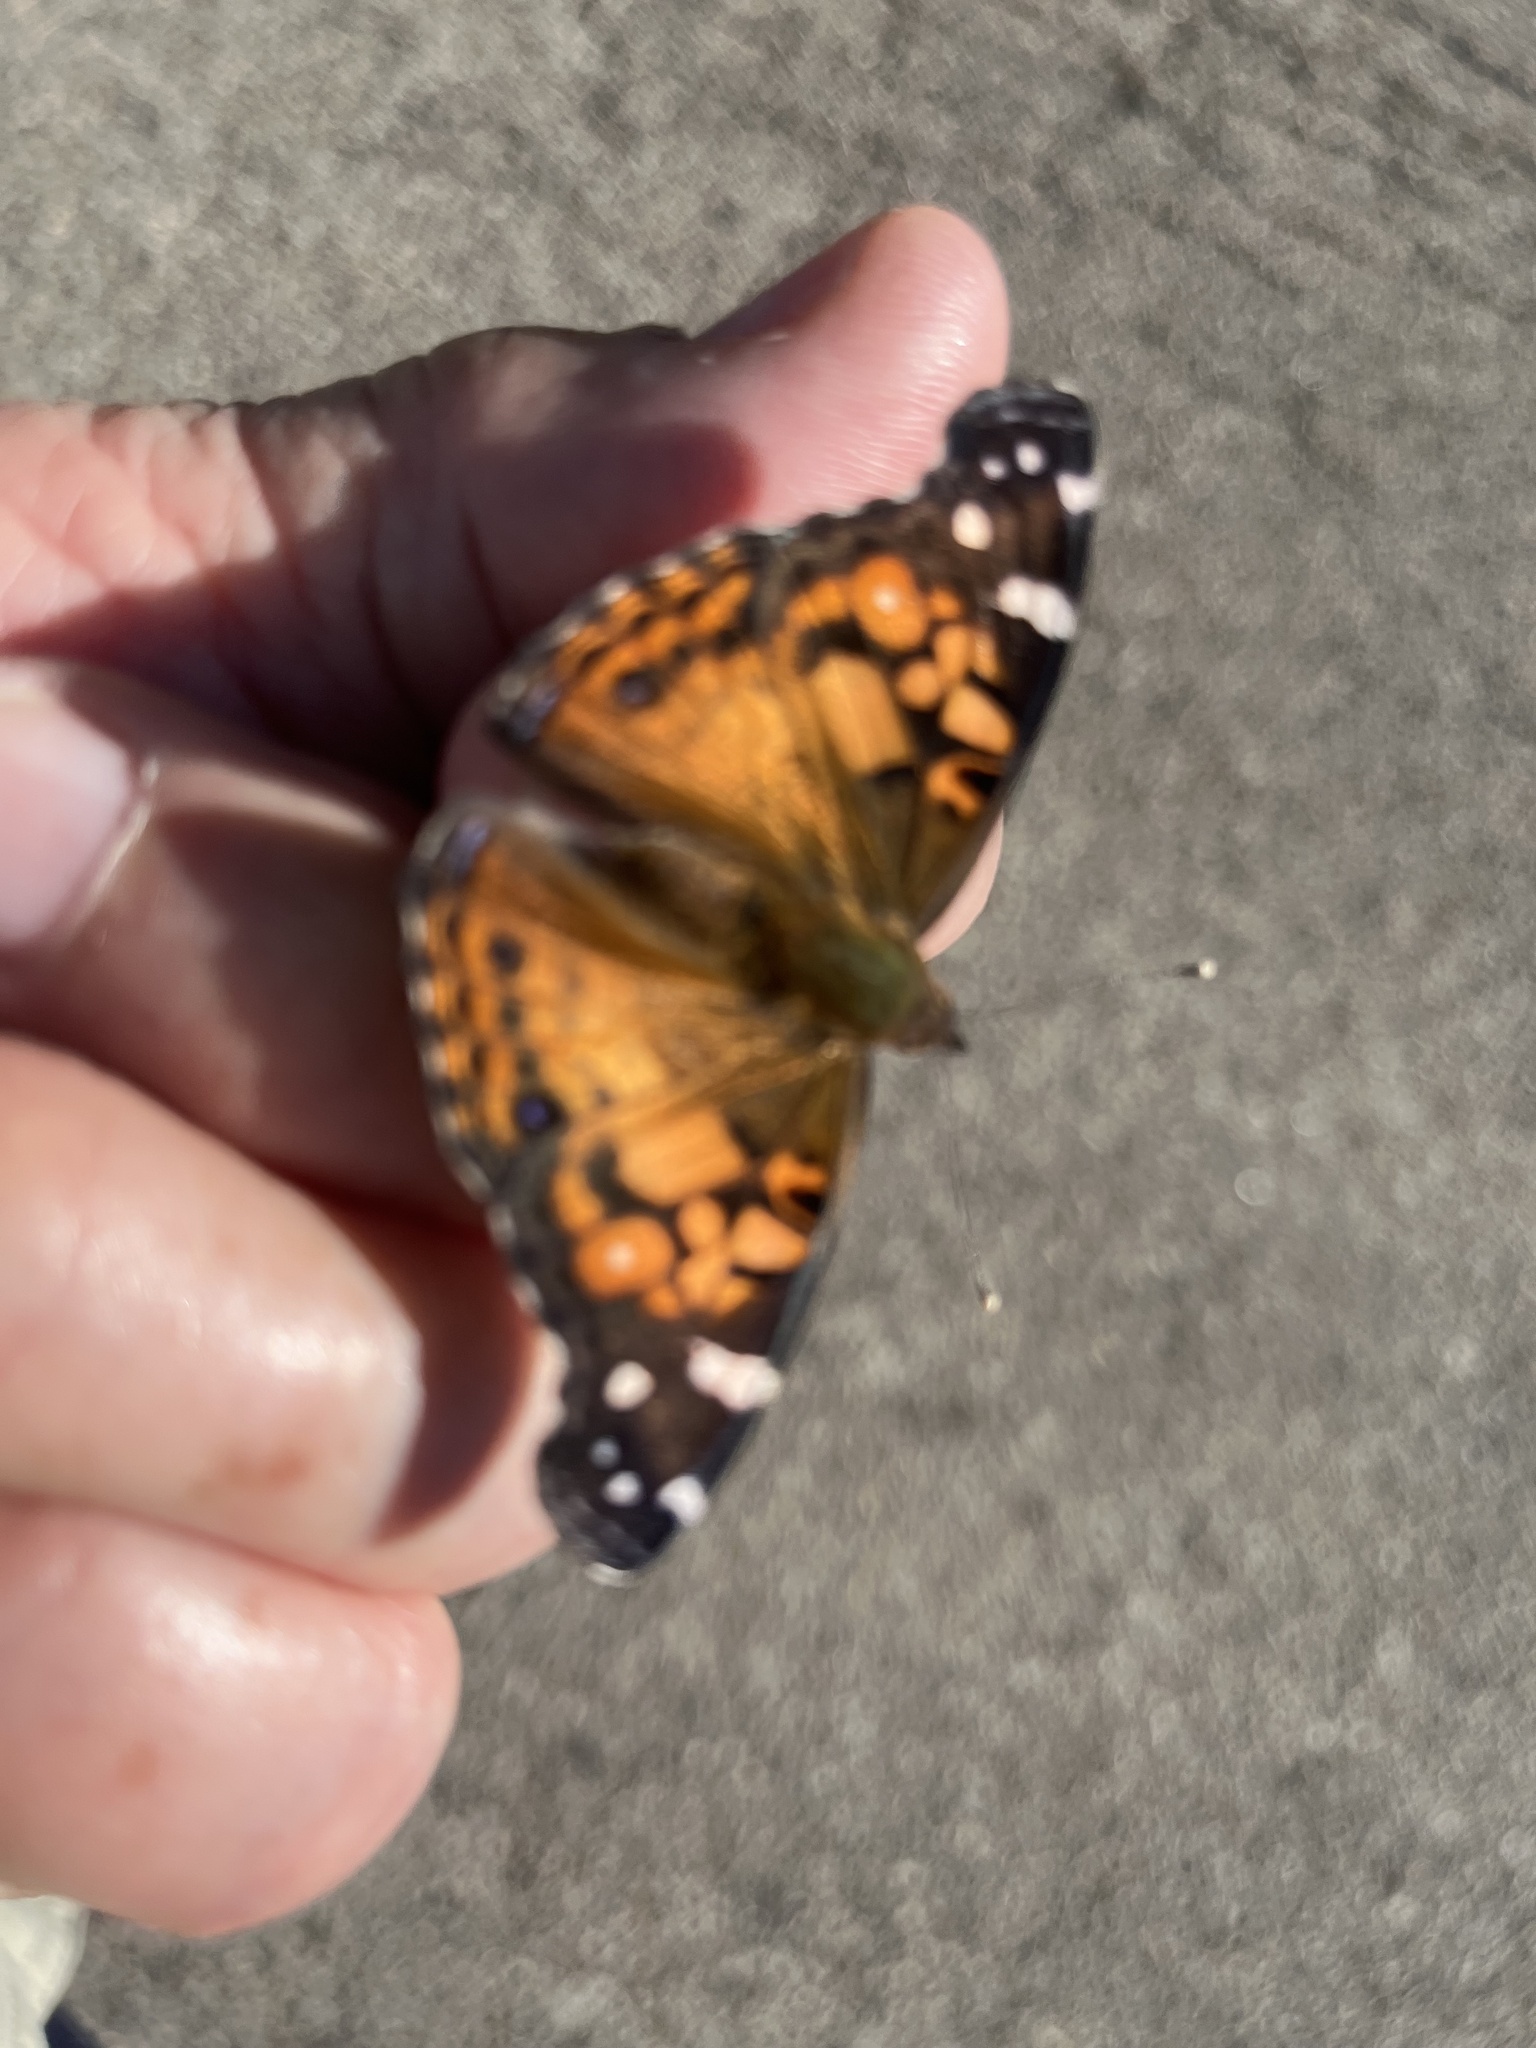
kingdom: Animalia
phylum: Arthropoda
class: Insecta
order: Lepidoptera
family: Nymphalidae
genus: Vanessa
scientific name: Vanessa virginiensis
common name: American lady
